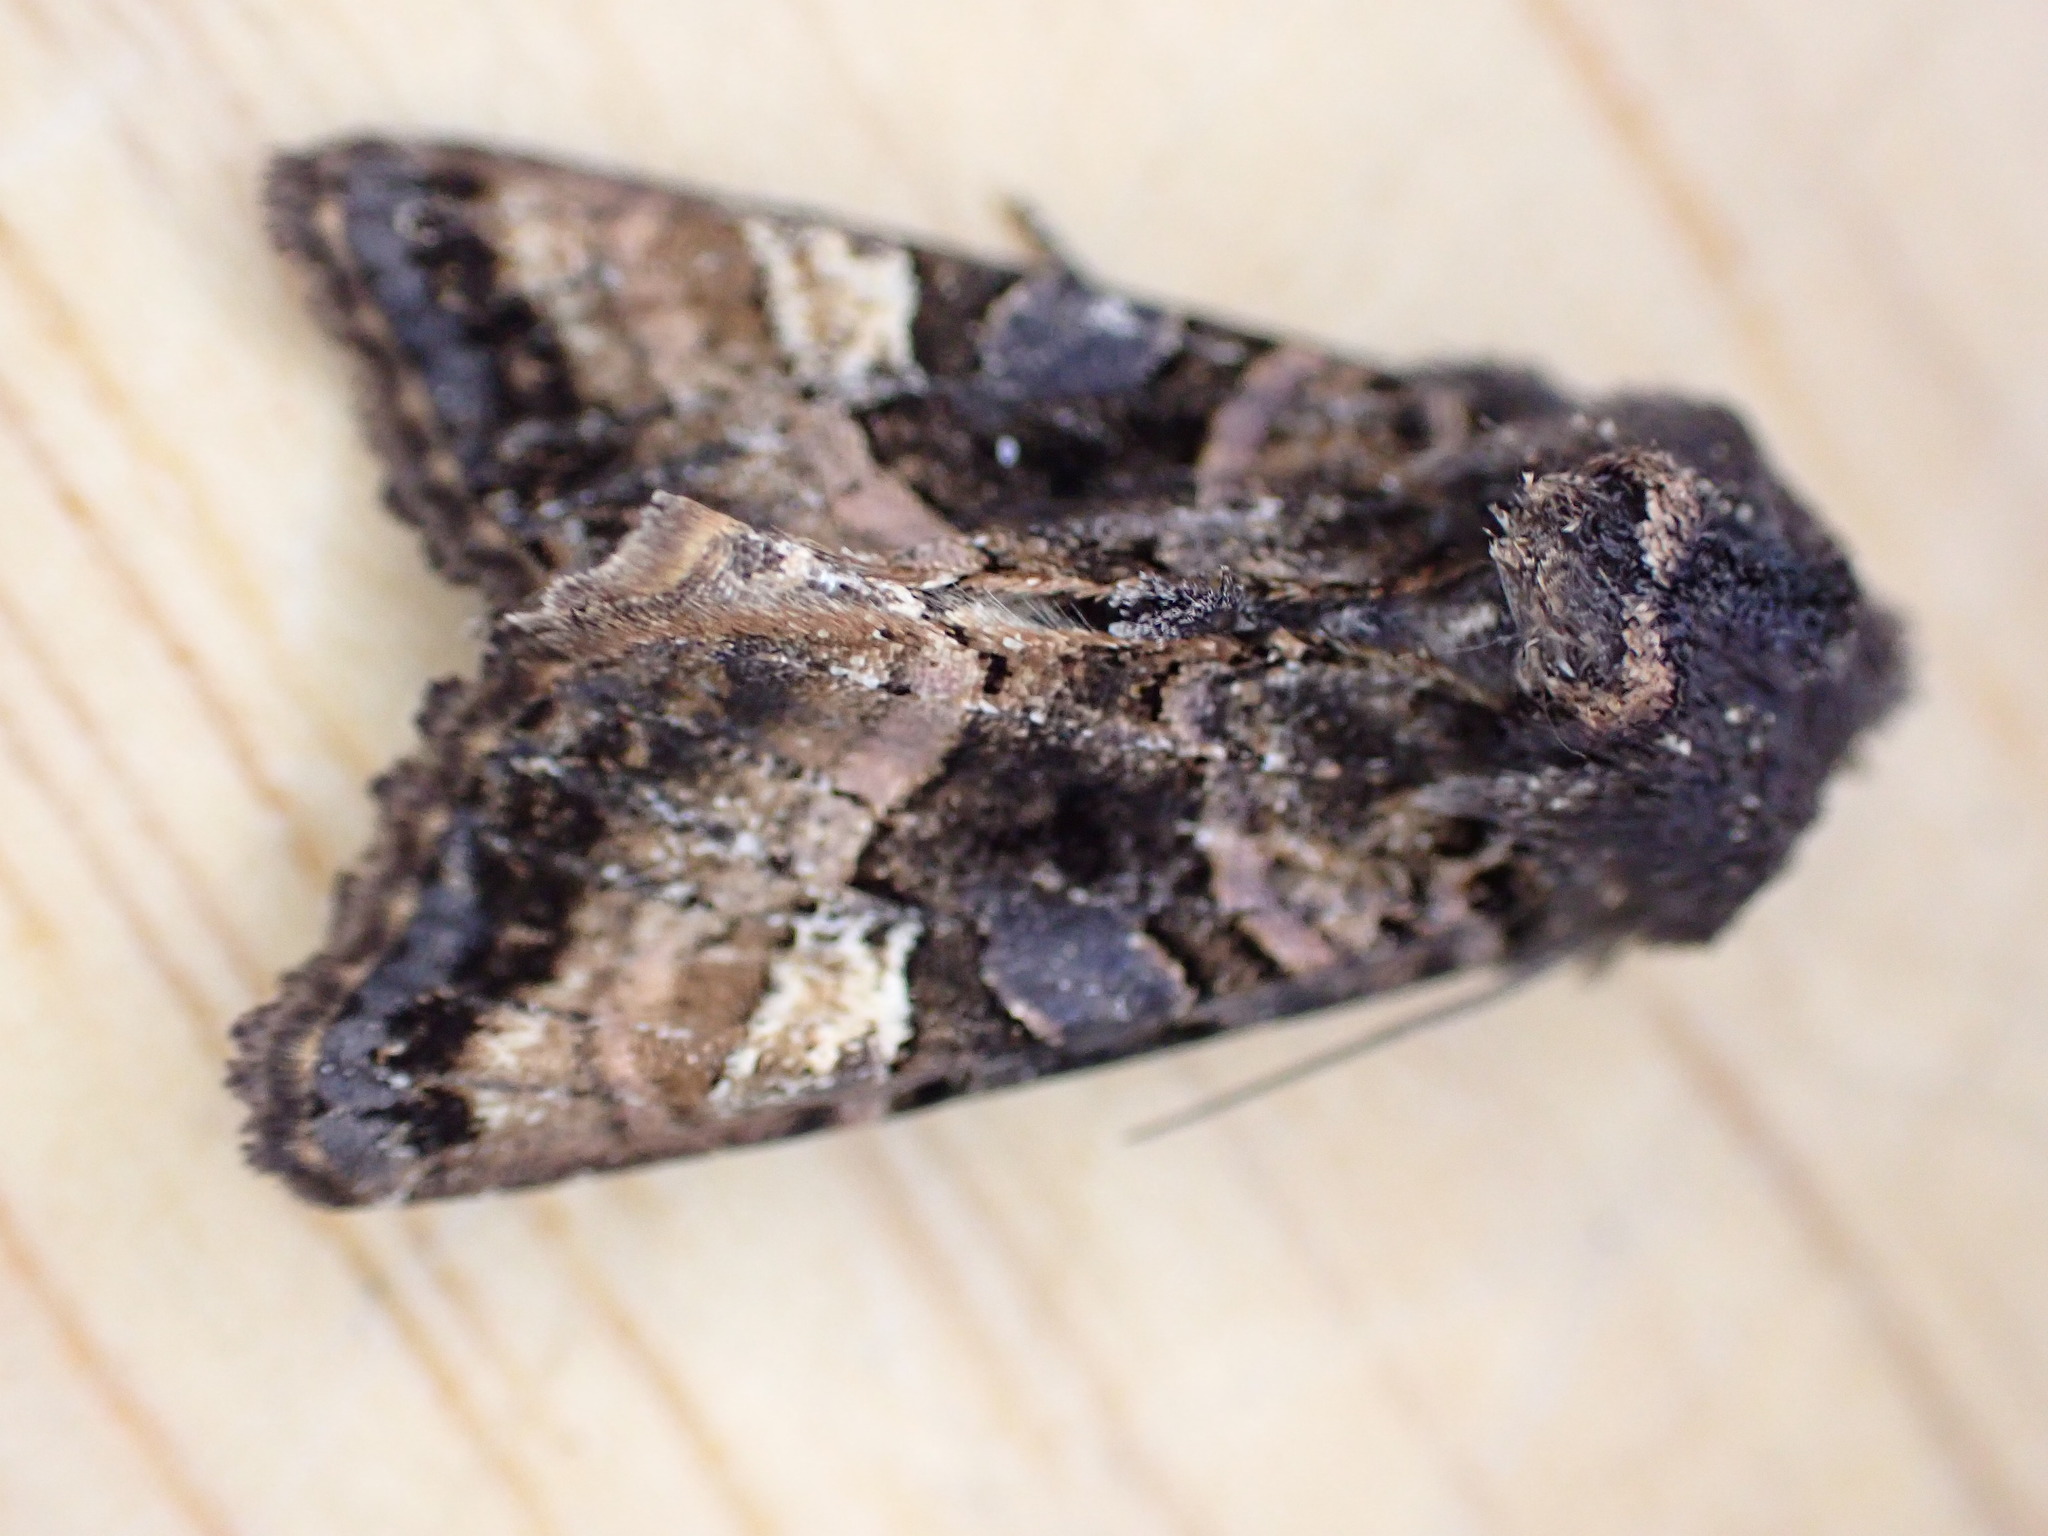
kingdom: Animalia
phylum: Arthropoda
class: Insecta
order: Lepidoptera
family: Noctuidae
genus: Euplexia
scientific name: Euplexia lucipara
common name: Small angle shades
